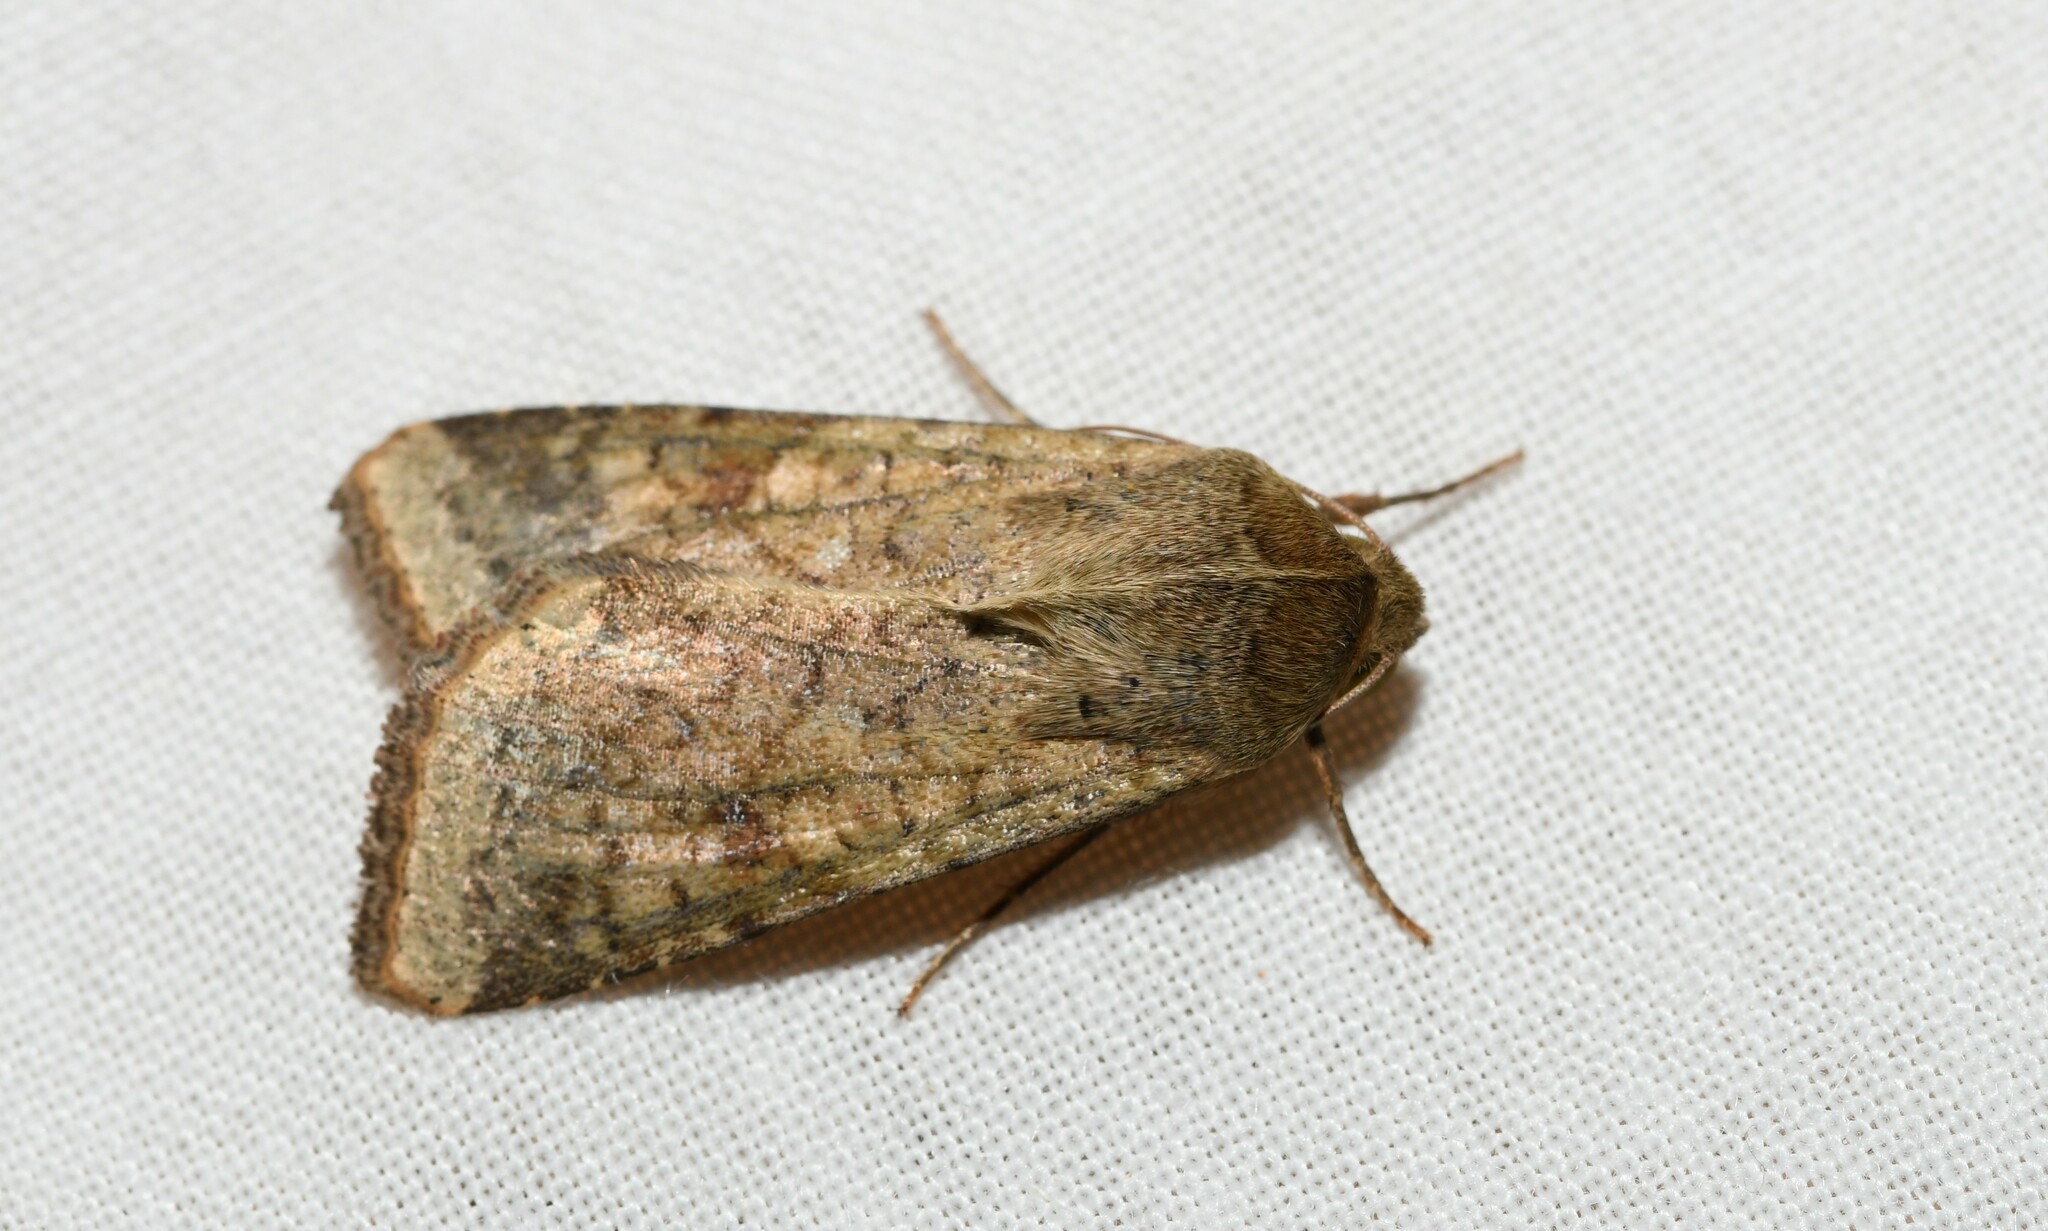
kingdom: Animalia
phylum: Arthropoda
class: Insecta
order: Lepidoptera
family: Noctuidae
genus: Helicoverpa
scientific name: Helicoverpa armigera
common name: Cotton bollworm
